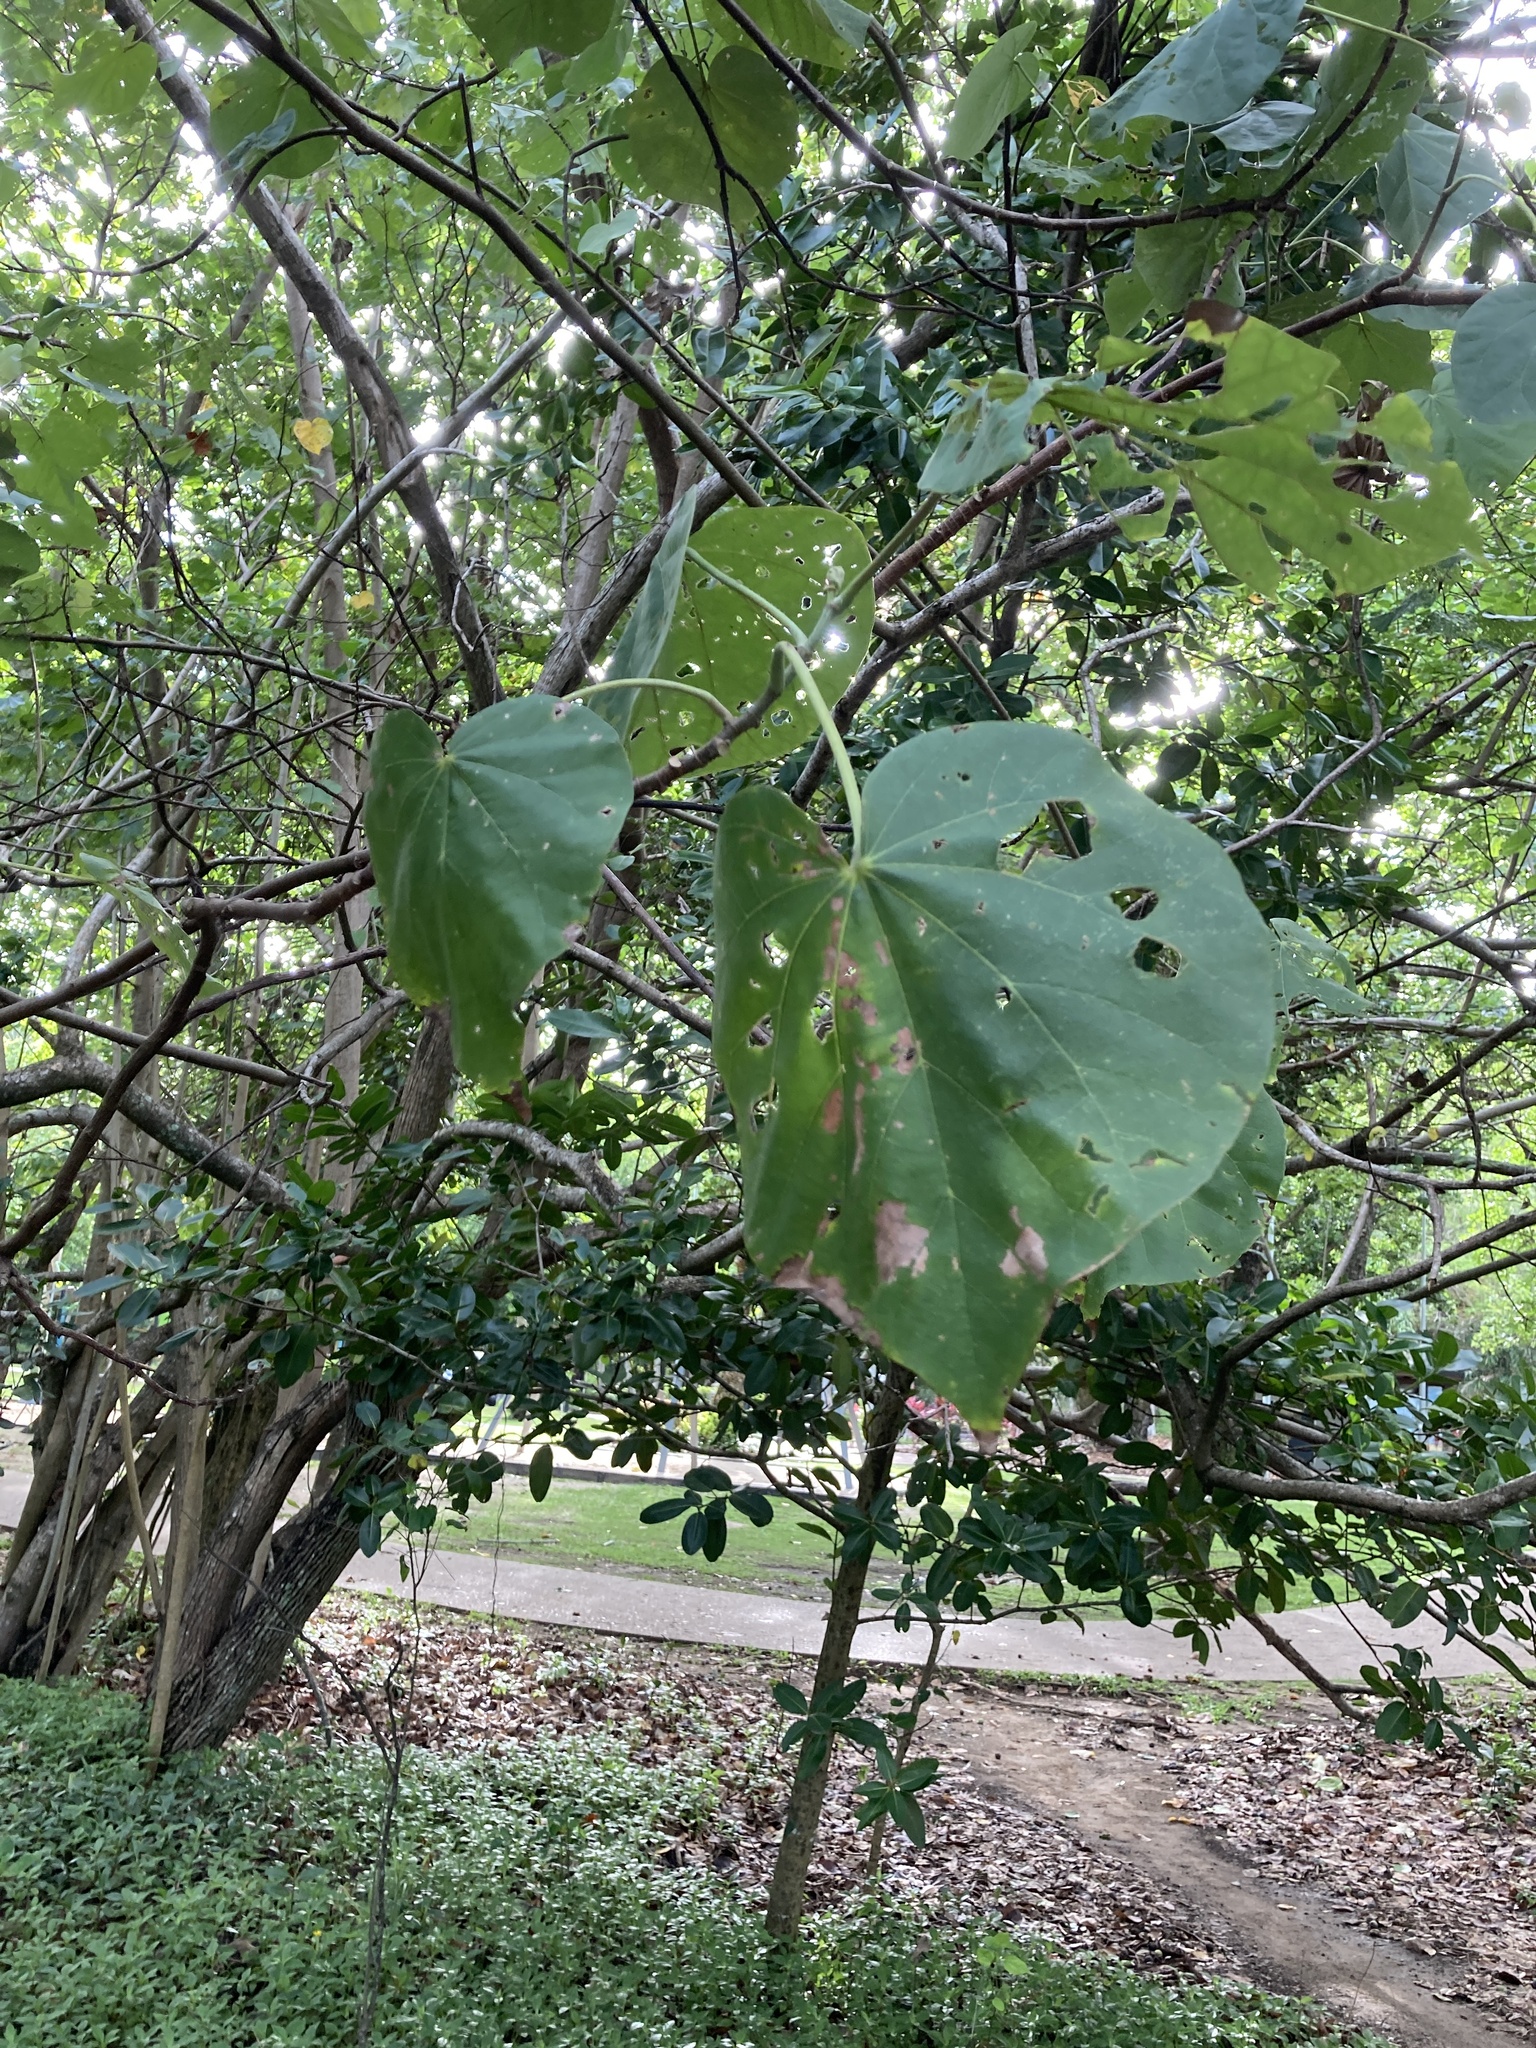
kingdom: Plantae
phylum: Tracheophyta
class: Magnoliopsida
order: Malvales
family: Malvaceae
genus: Talipariti
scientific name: Talipariti tiliaceum
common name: Sea hibiscus
